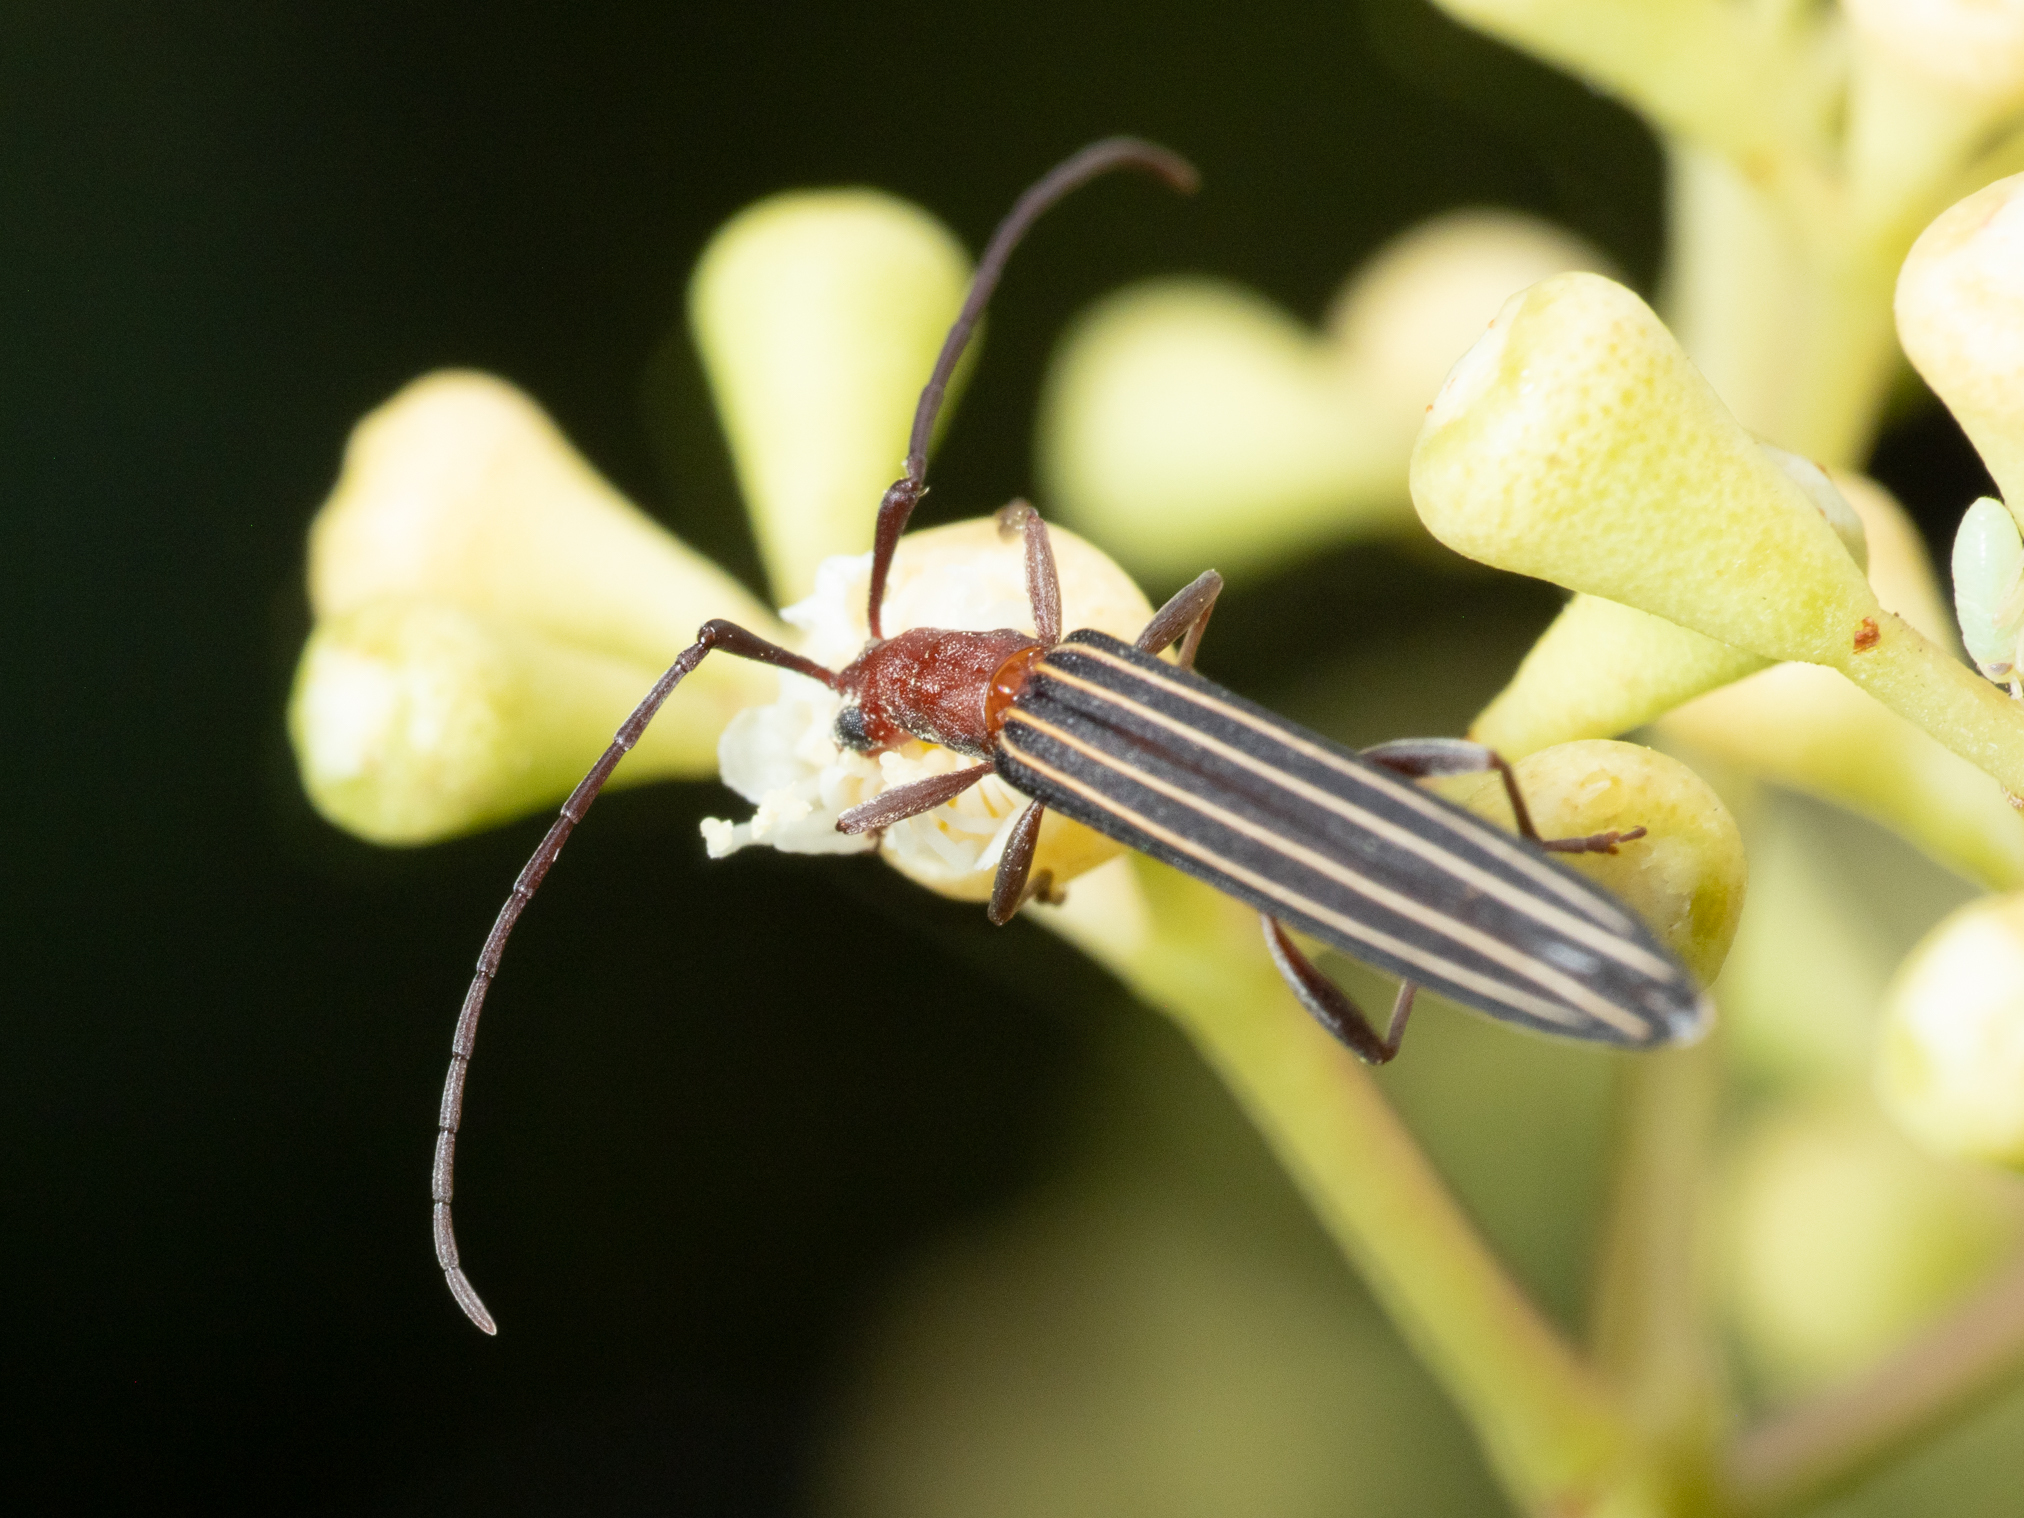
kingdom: Animalia
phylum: Arthropoda
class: Insecta
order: Coleoptera
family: Cerambycidae
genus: Syllitus
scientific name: Syllitus rectus
